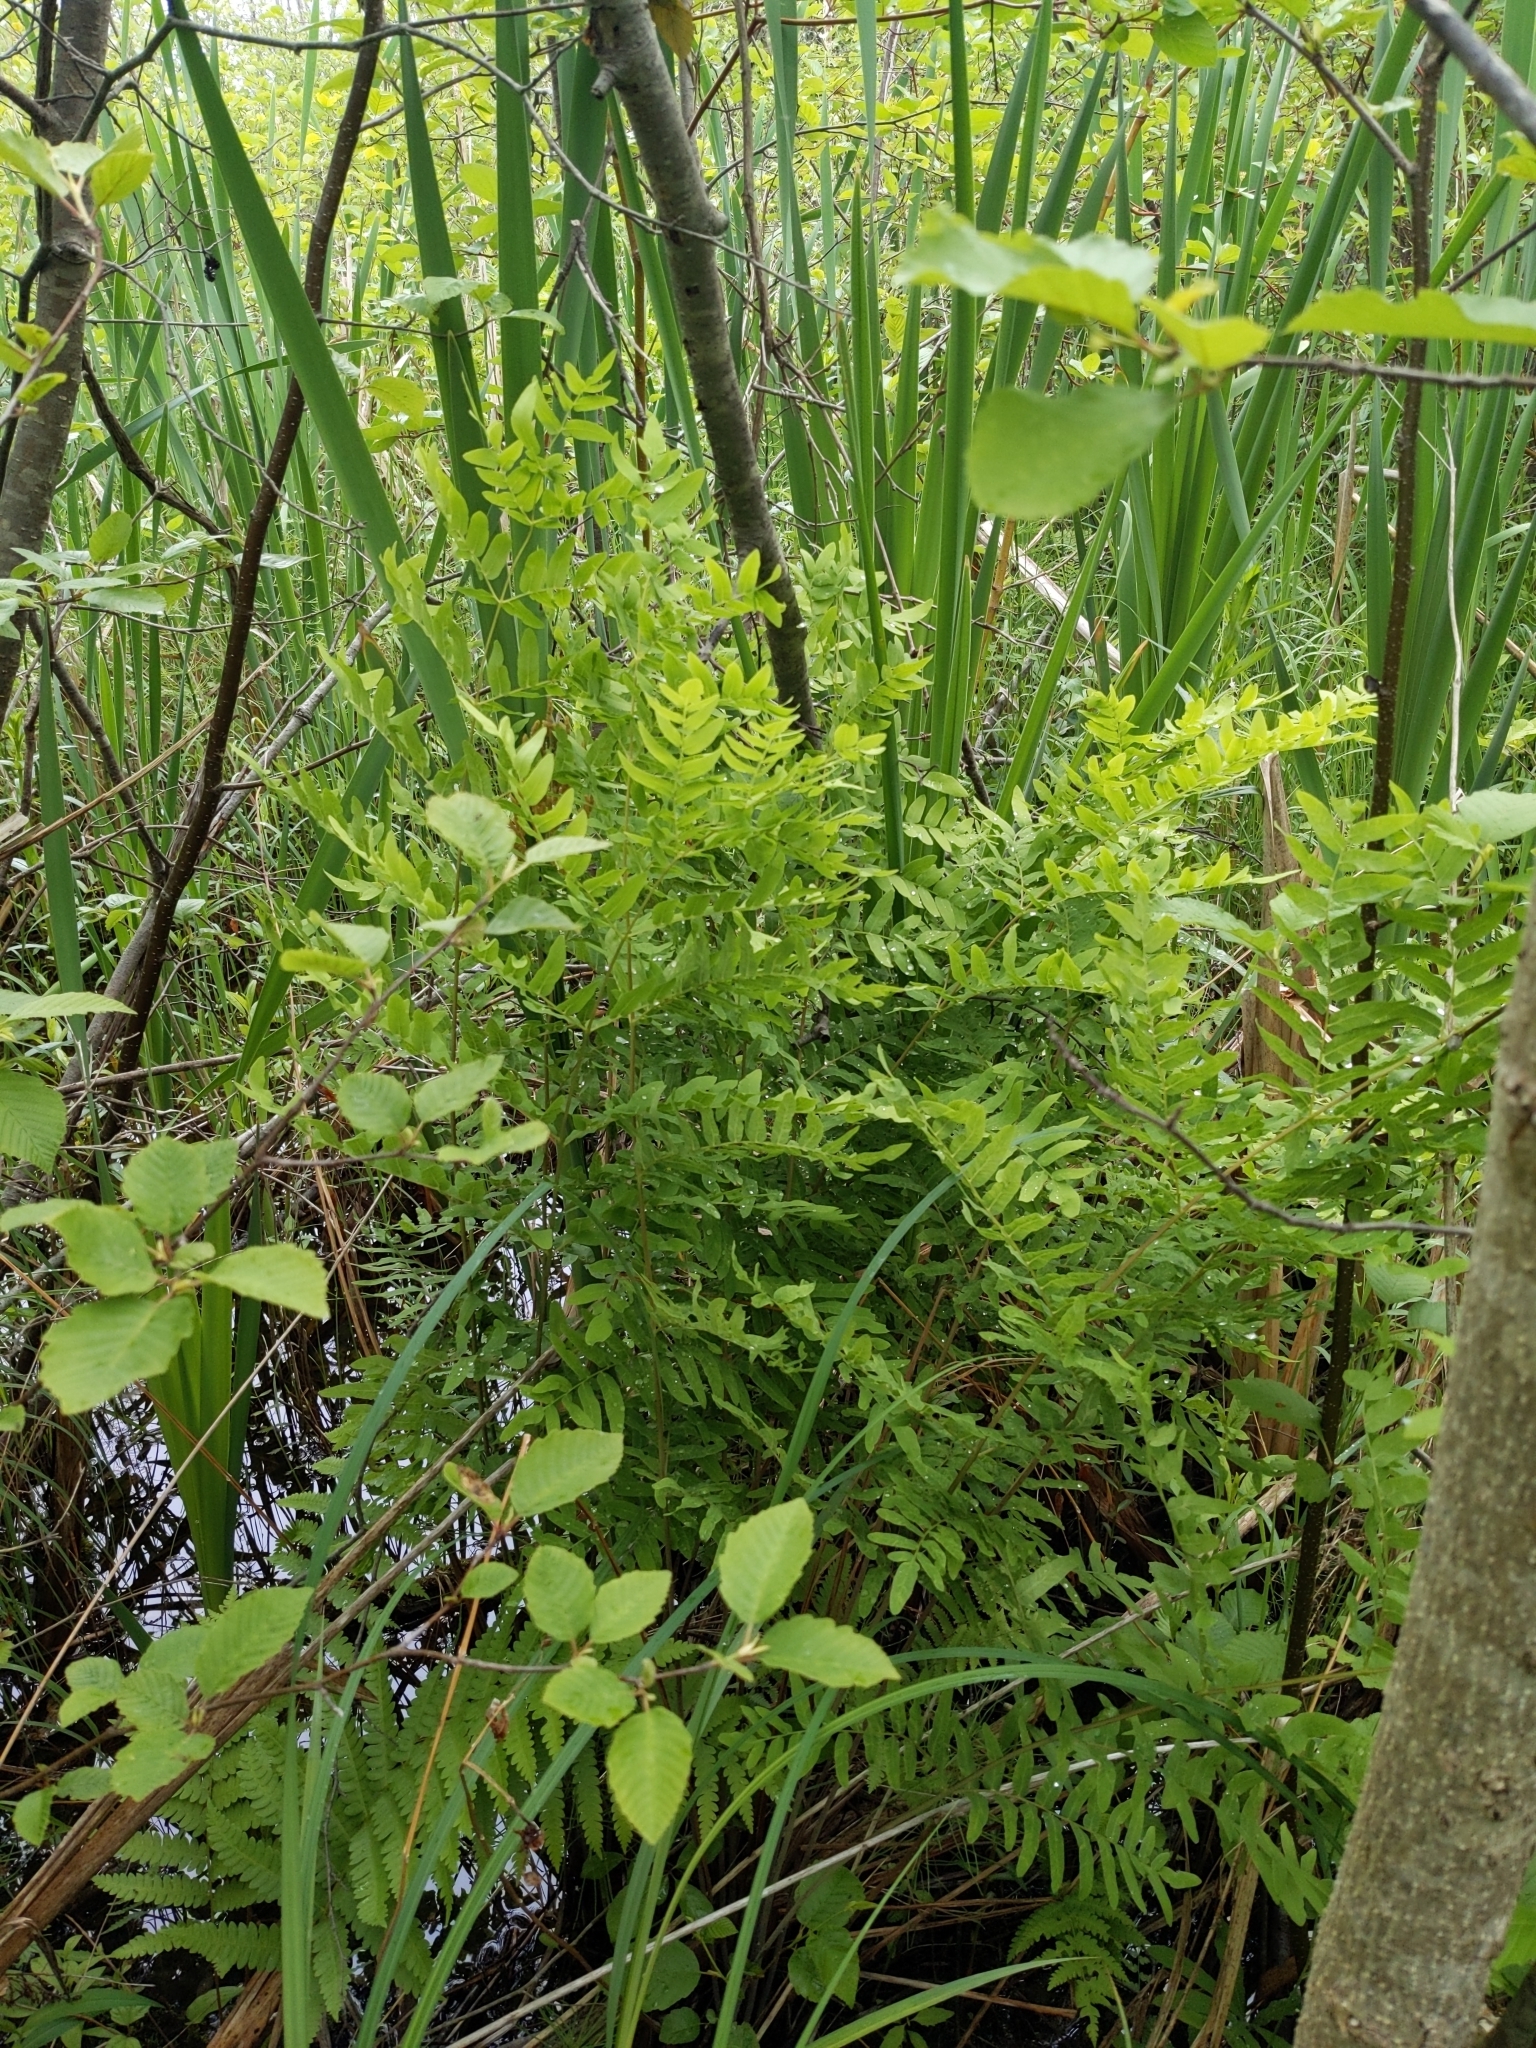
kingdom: Plantae
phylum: Tracheophyta
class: Polypodiopsida
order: Osmundales
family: Osmundaceae
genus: Osmunda
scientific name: Osmunda spectabilis
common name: American royal fern
